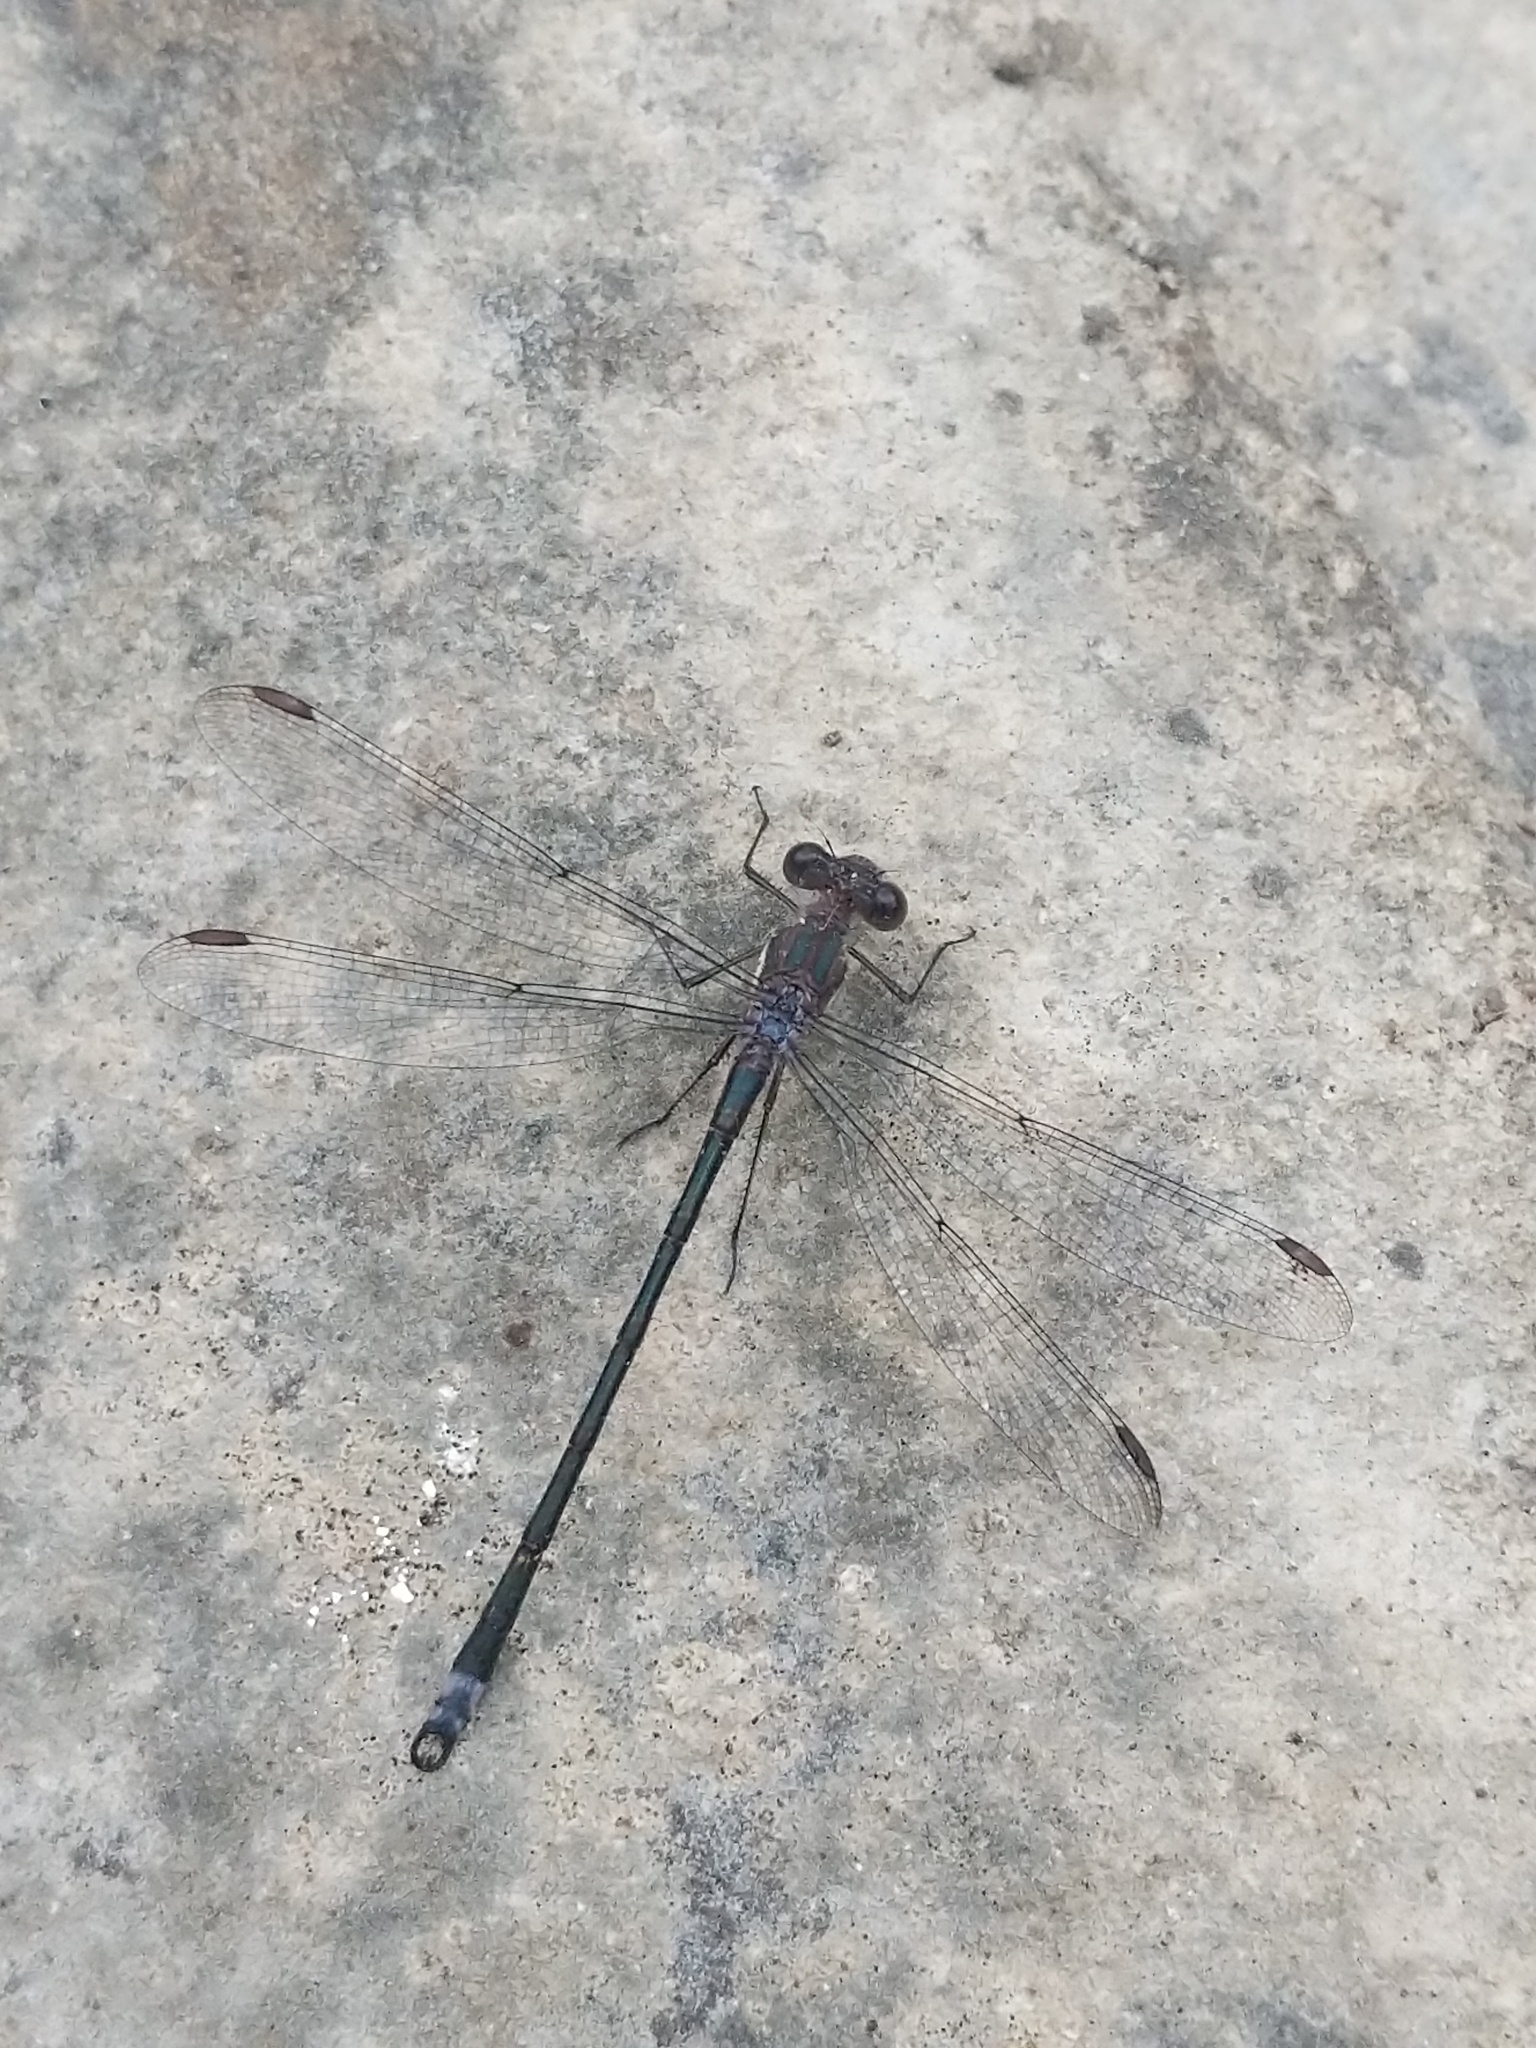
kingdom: Animalia
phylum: Arthropoda
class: Insecta
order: Odonata
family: Lestidae
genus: Archilestes
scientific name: Archilestes grandis
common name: Great spreadwing
